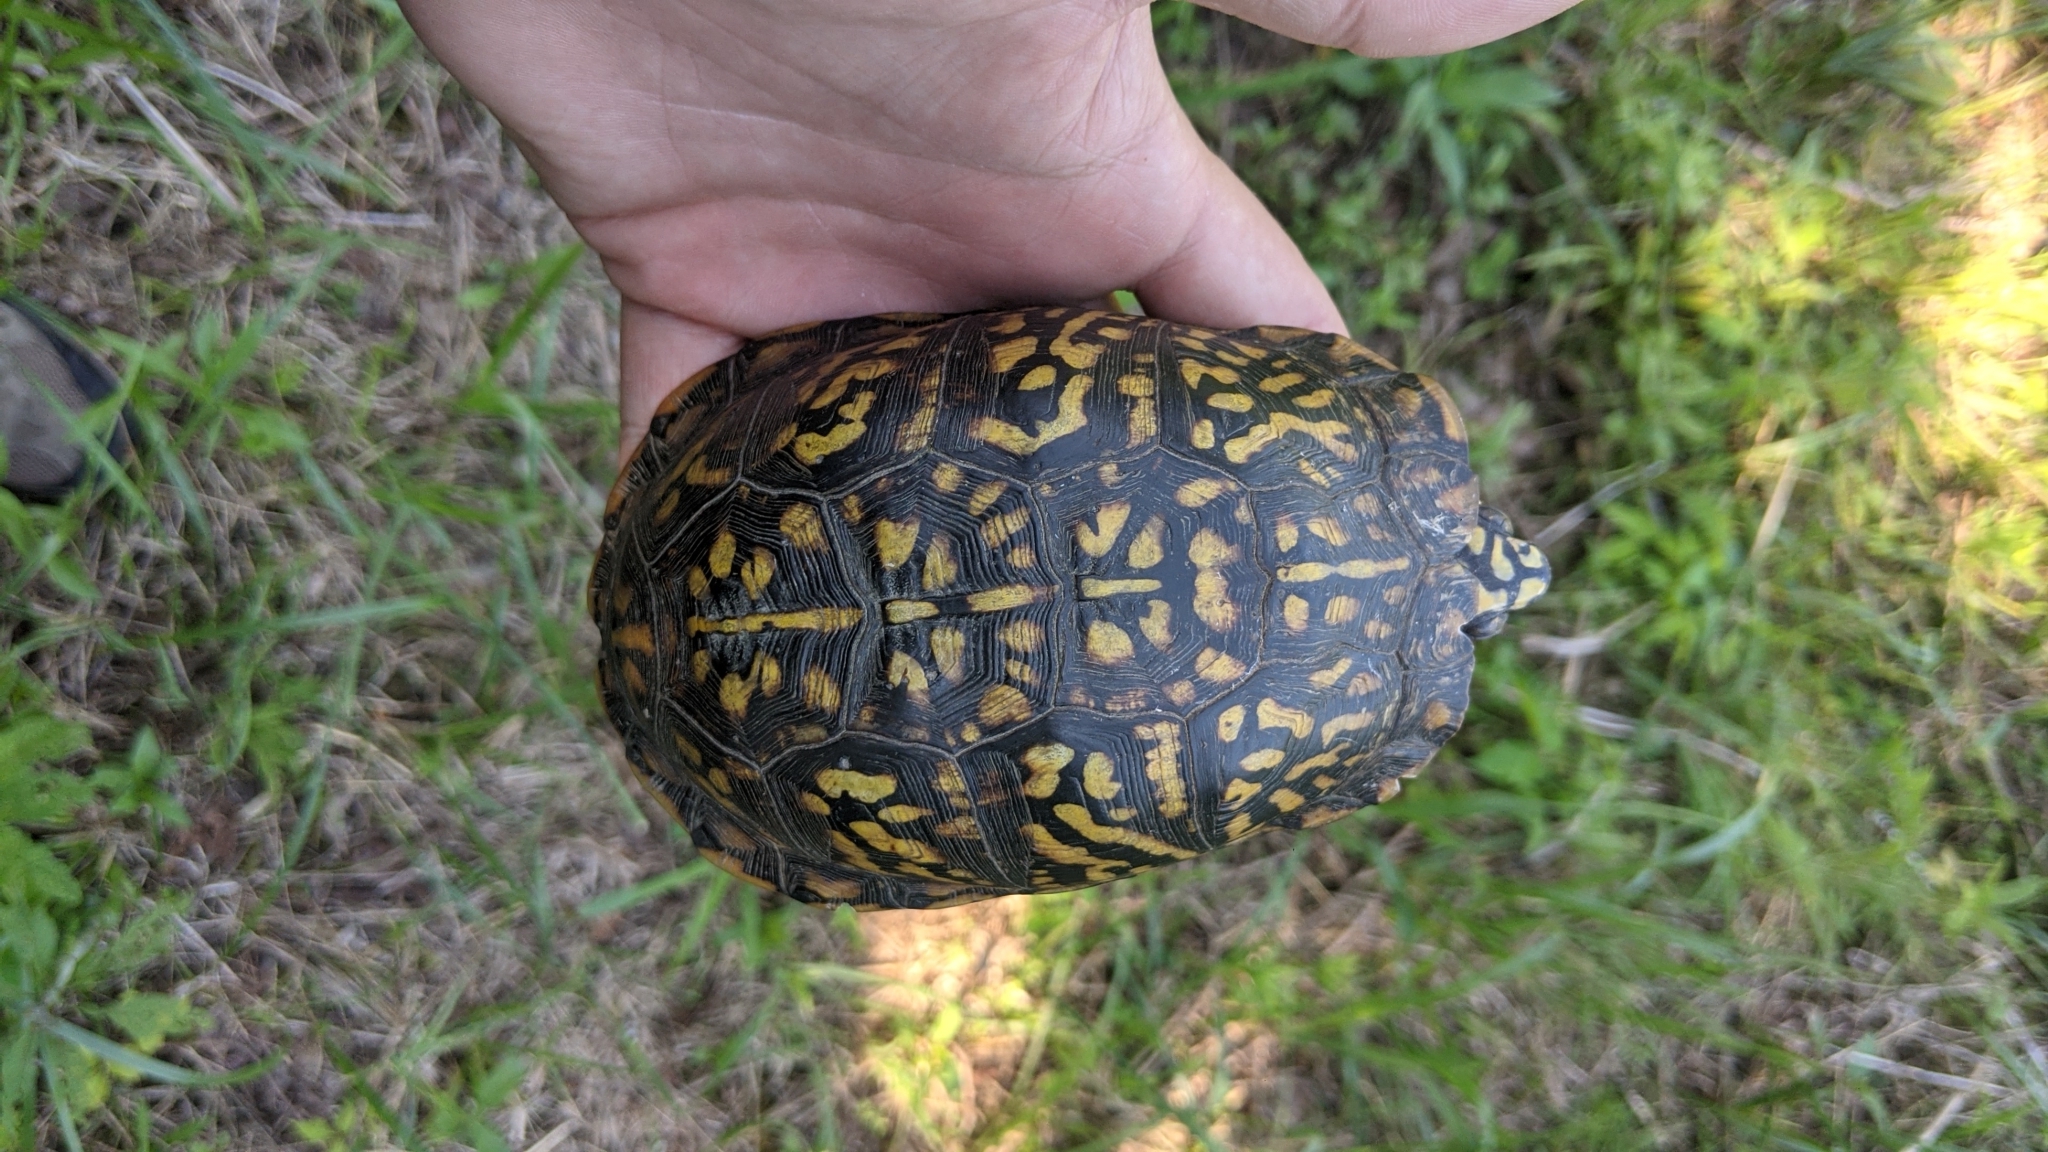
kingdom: Animalia
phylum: Chordata
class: Testudines
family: Emydidae
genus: Terrapene
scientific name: Terrapene carolina
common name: Common box turtle
